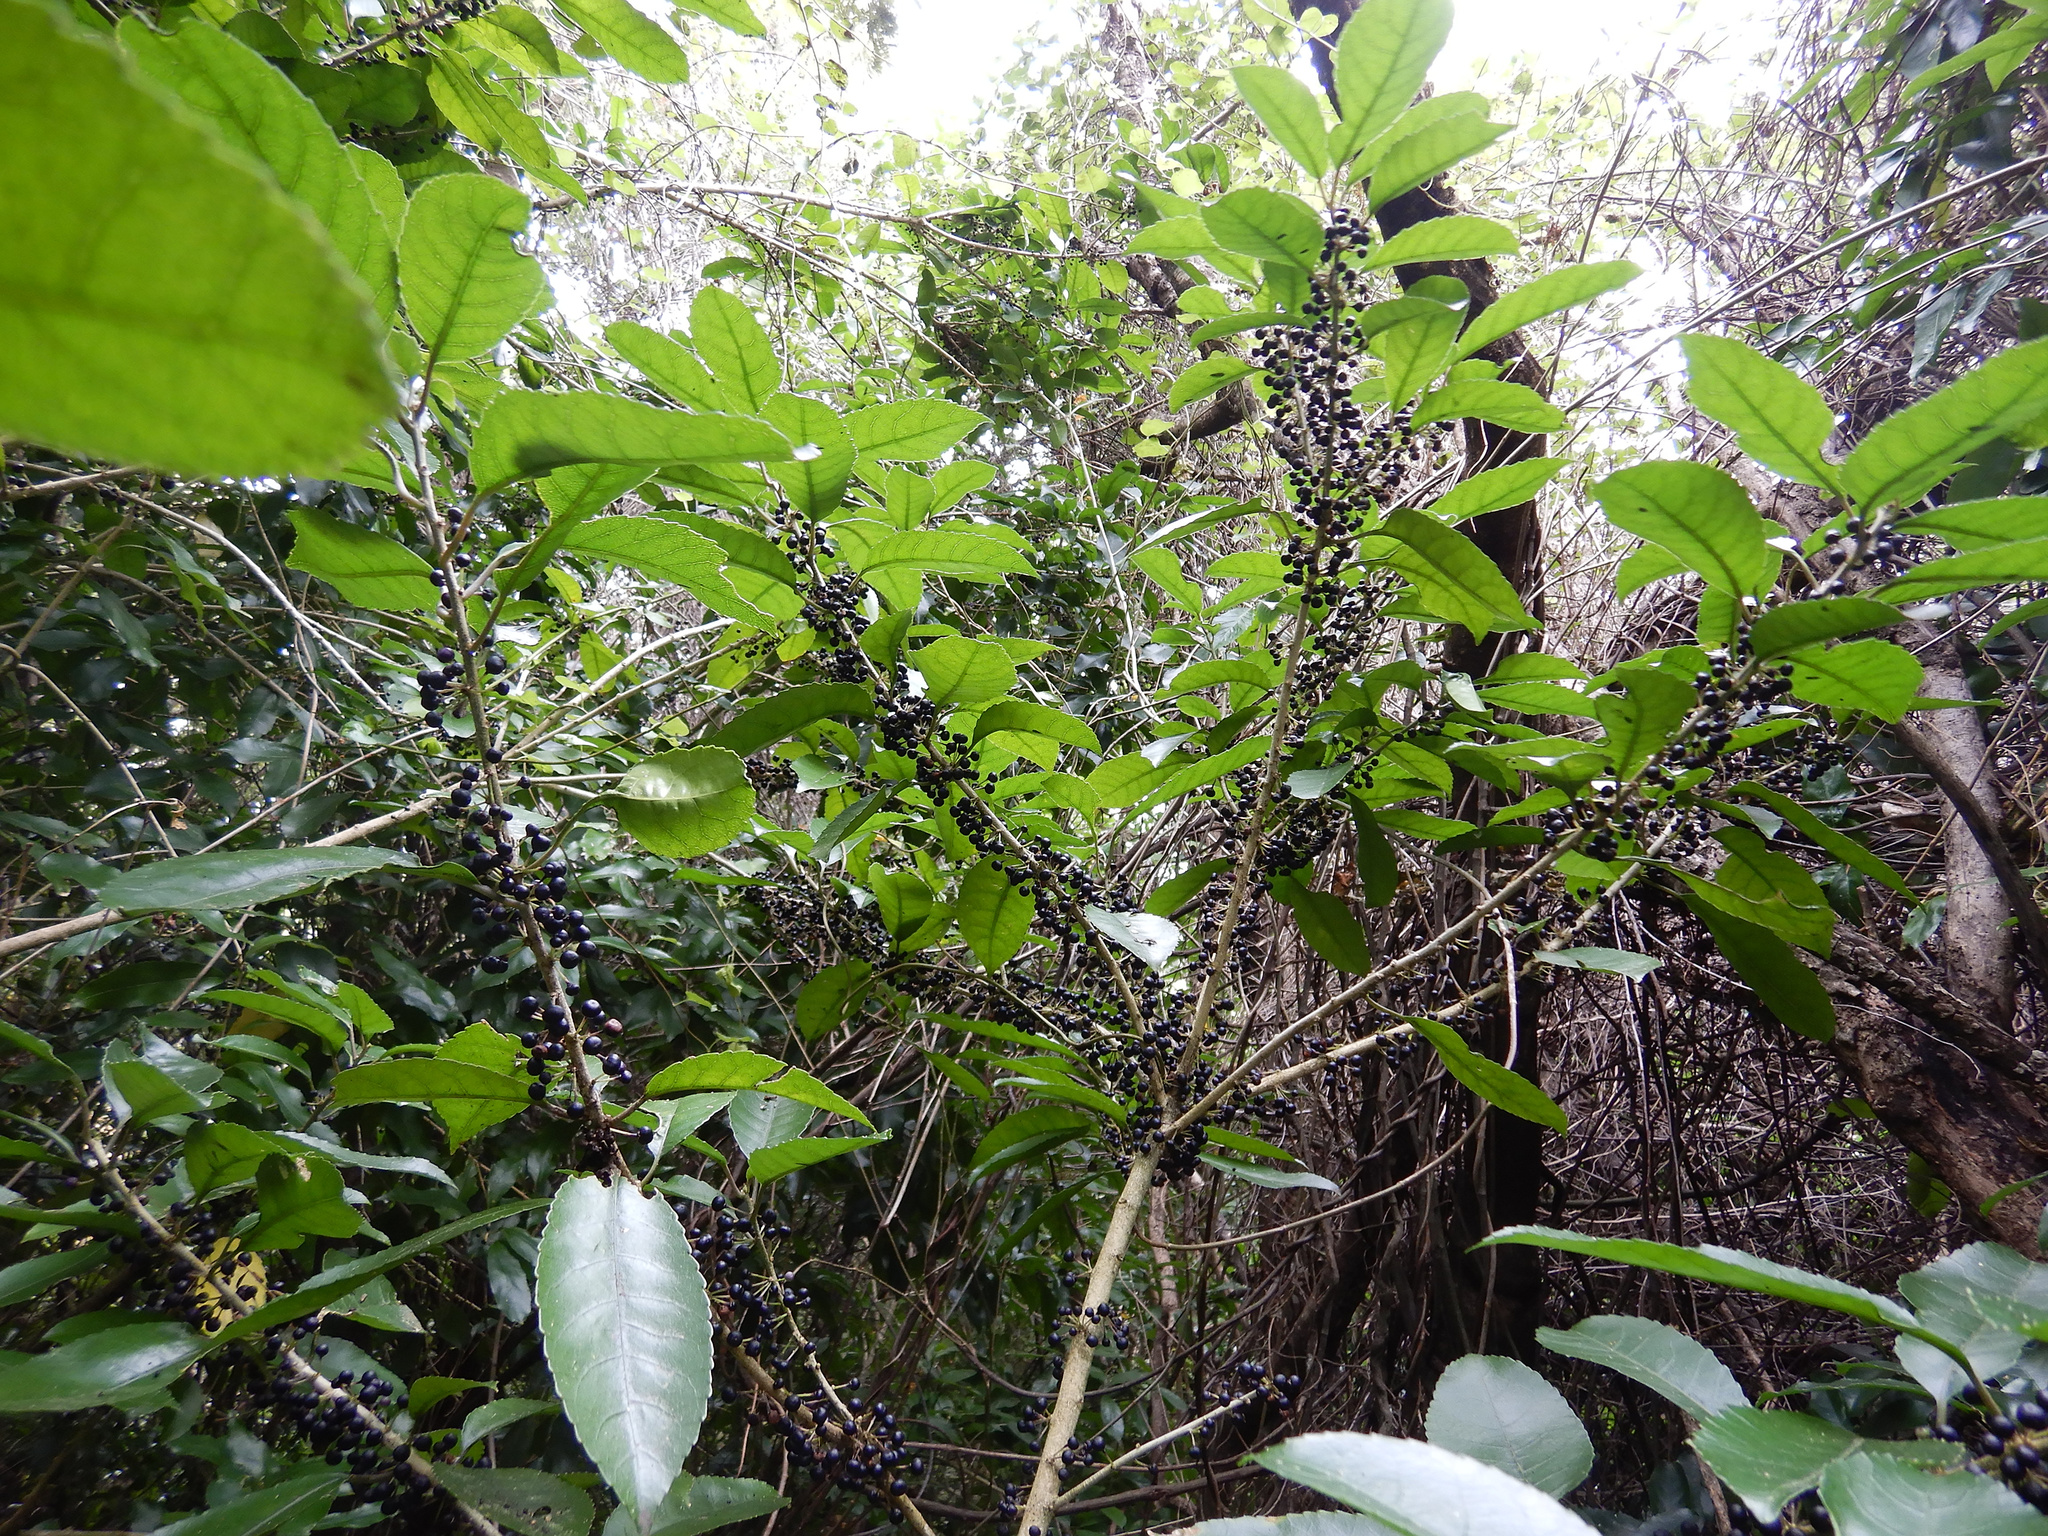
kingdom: Plantae
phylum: Tracheophyta
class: Magnoliopsida
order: Malpighiales
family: Violaceae
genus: Melicytus
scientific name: Melicytus ramiflorus
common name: Mahoe
